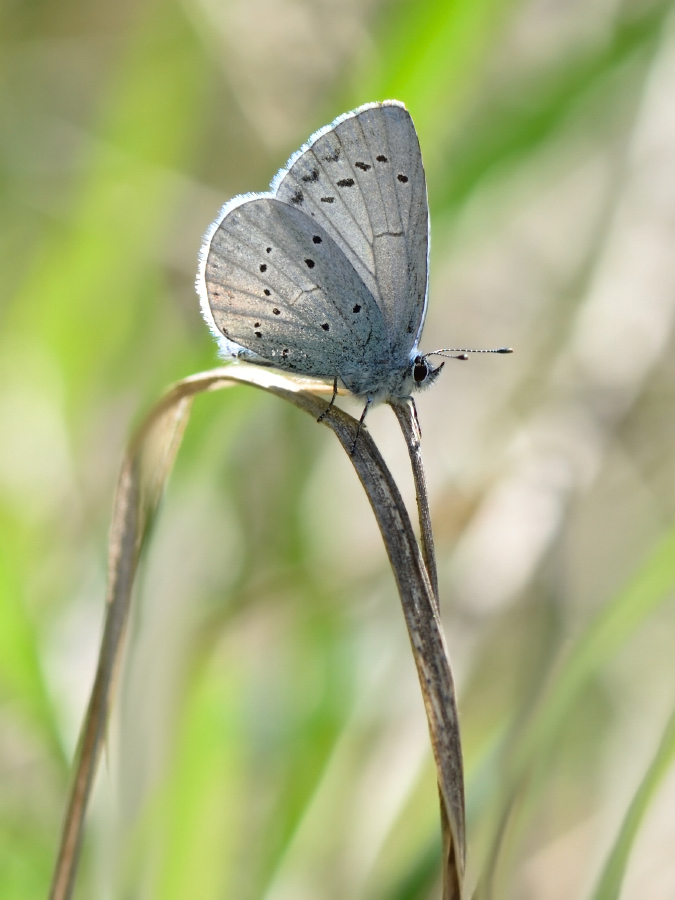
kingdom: Animalia
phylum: Arthropoda
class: Insecta
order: Lepidoptera
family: Lycaenidae
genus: Celastrina
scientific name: Celastrina argiolus
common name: Holly blue
